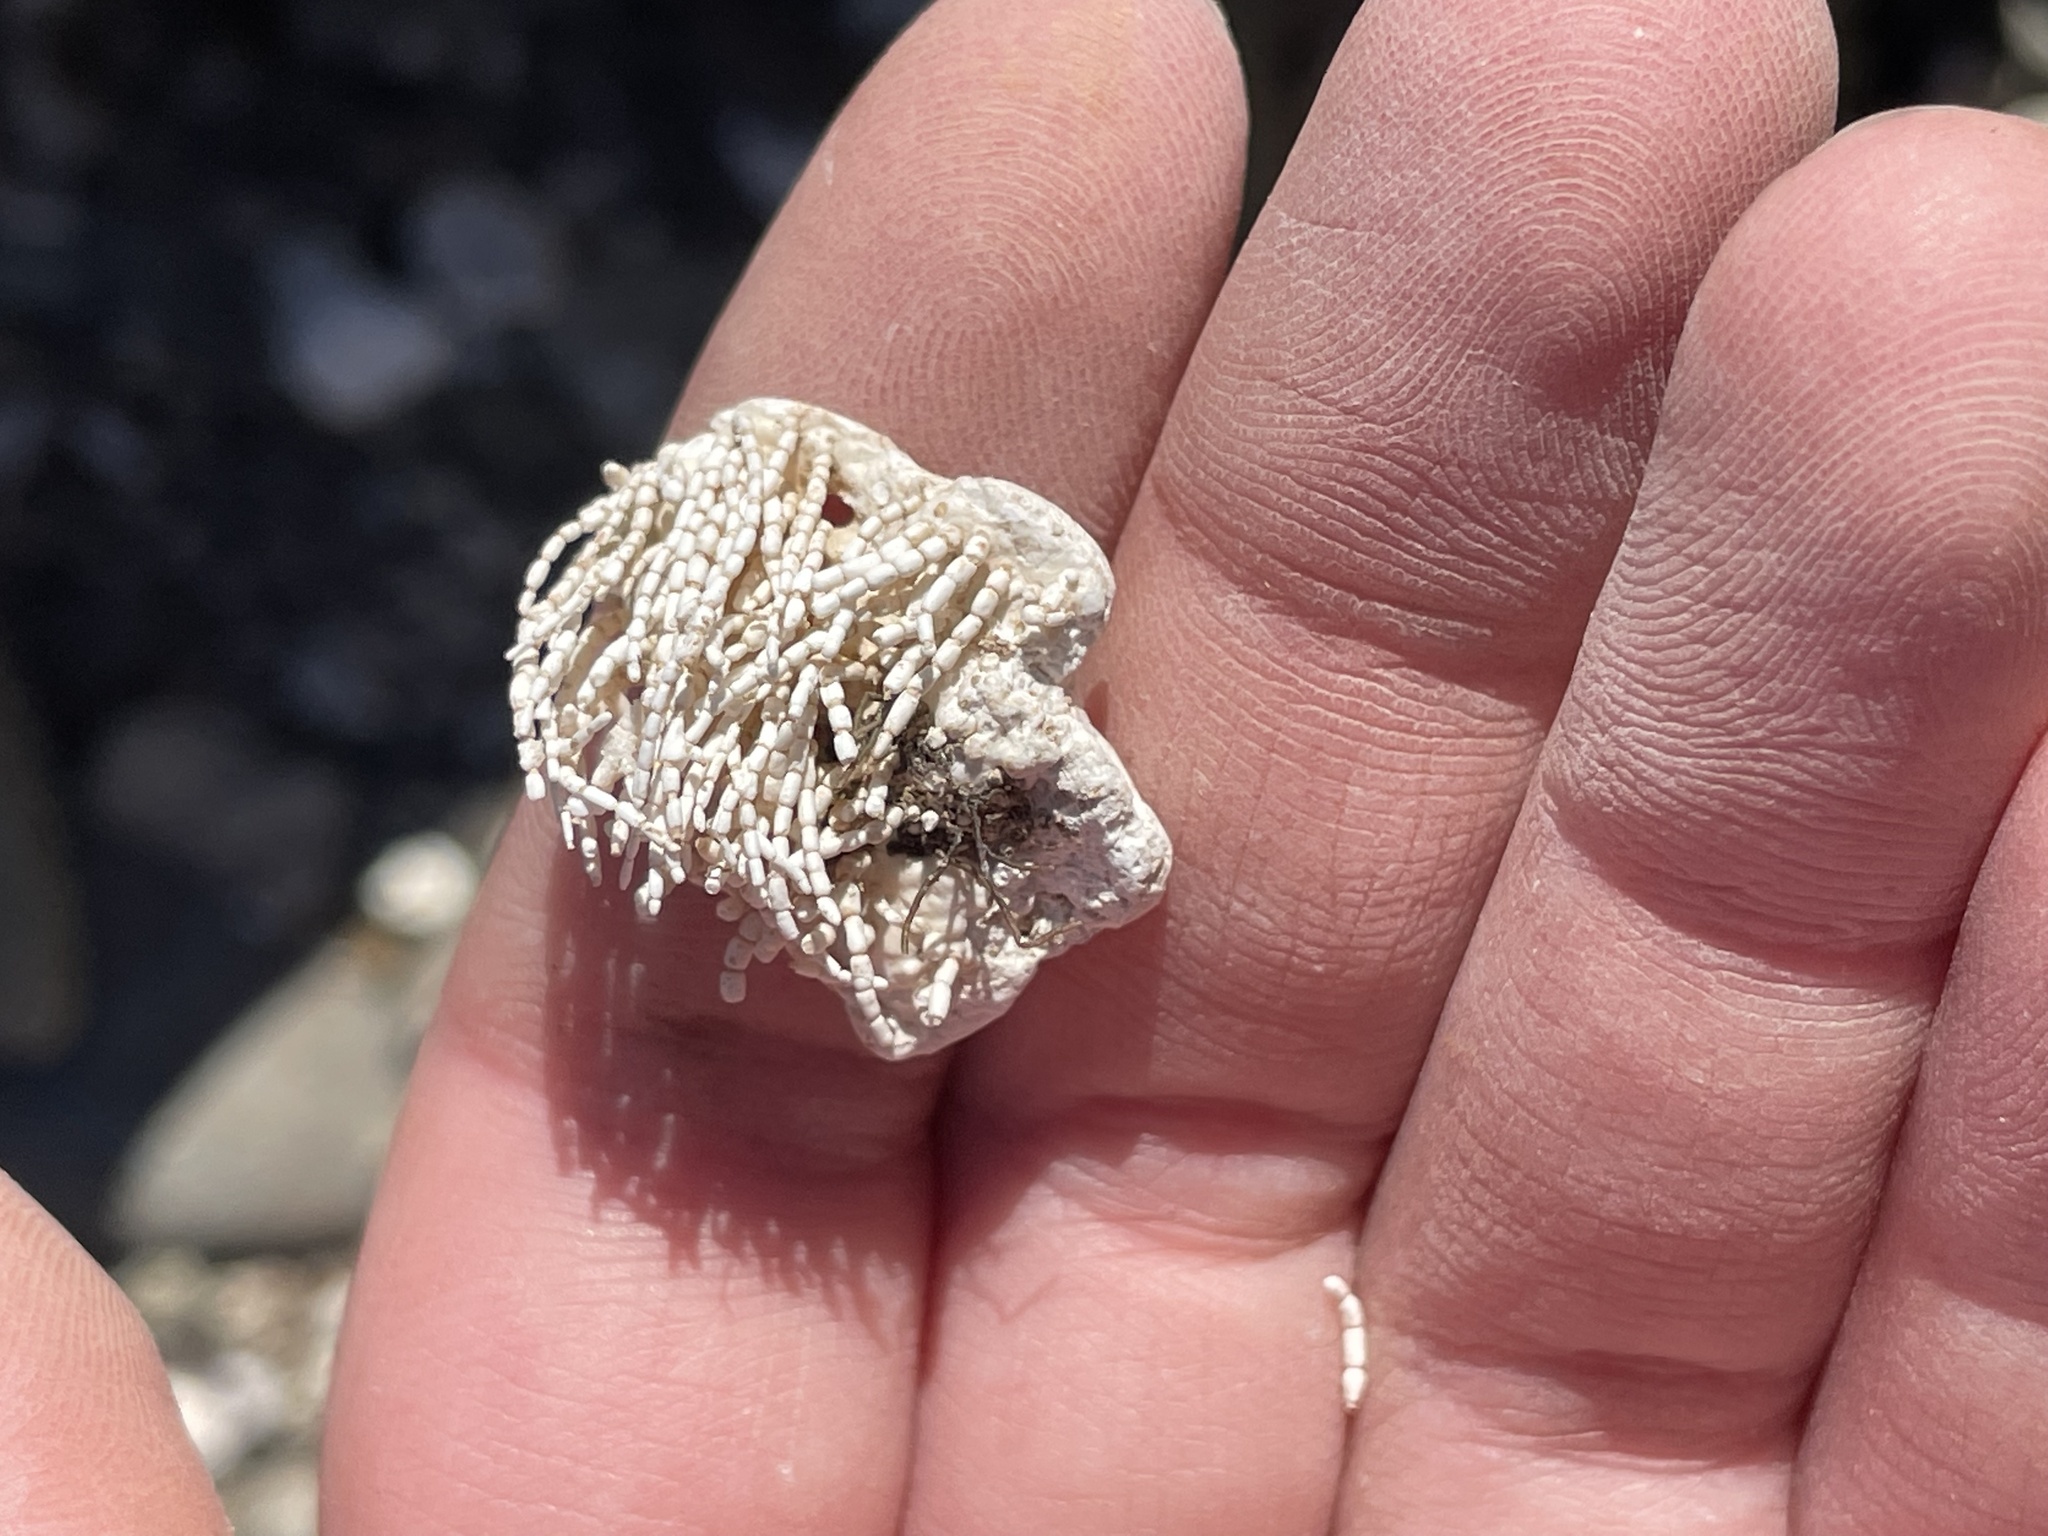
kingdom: Plantae
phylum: Rhodophyta
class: Florideophyceae
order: Corallinales
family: Corallinaceae
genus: Corallina
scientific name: Corallina officinalis
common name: Coral weed
